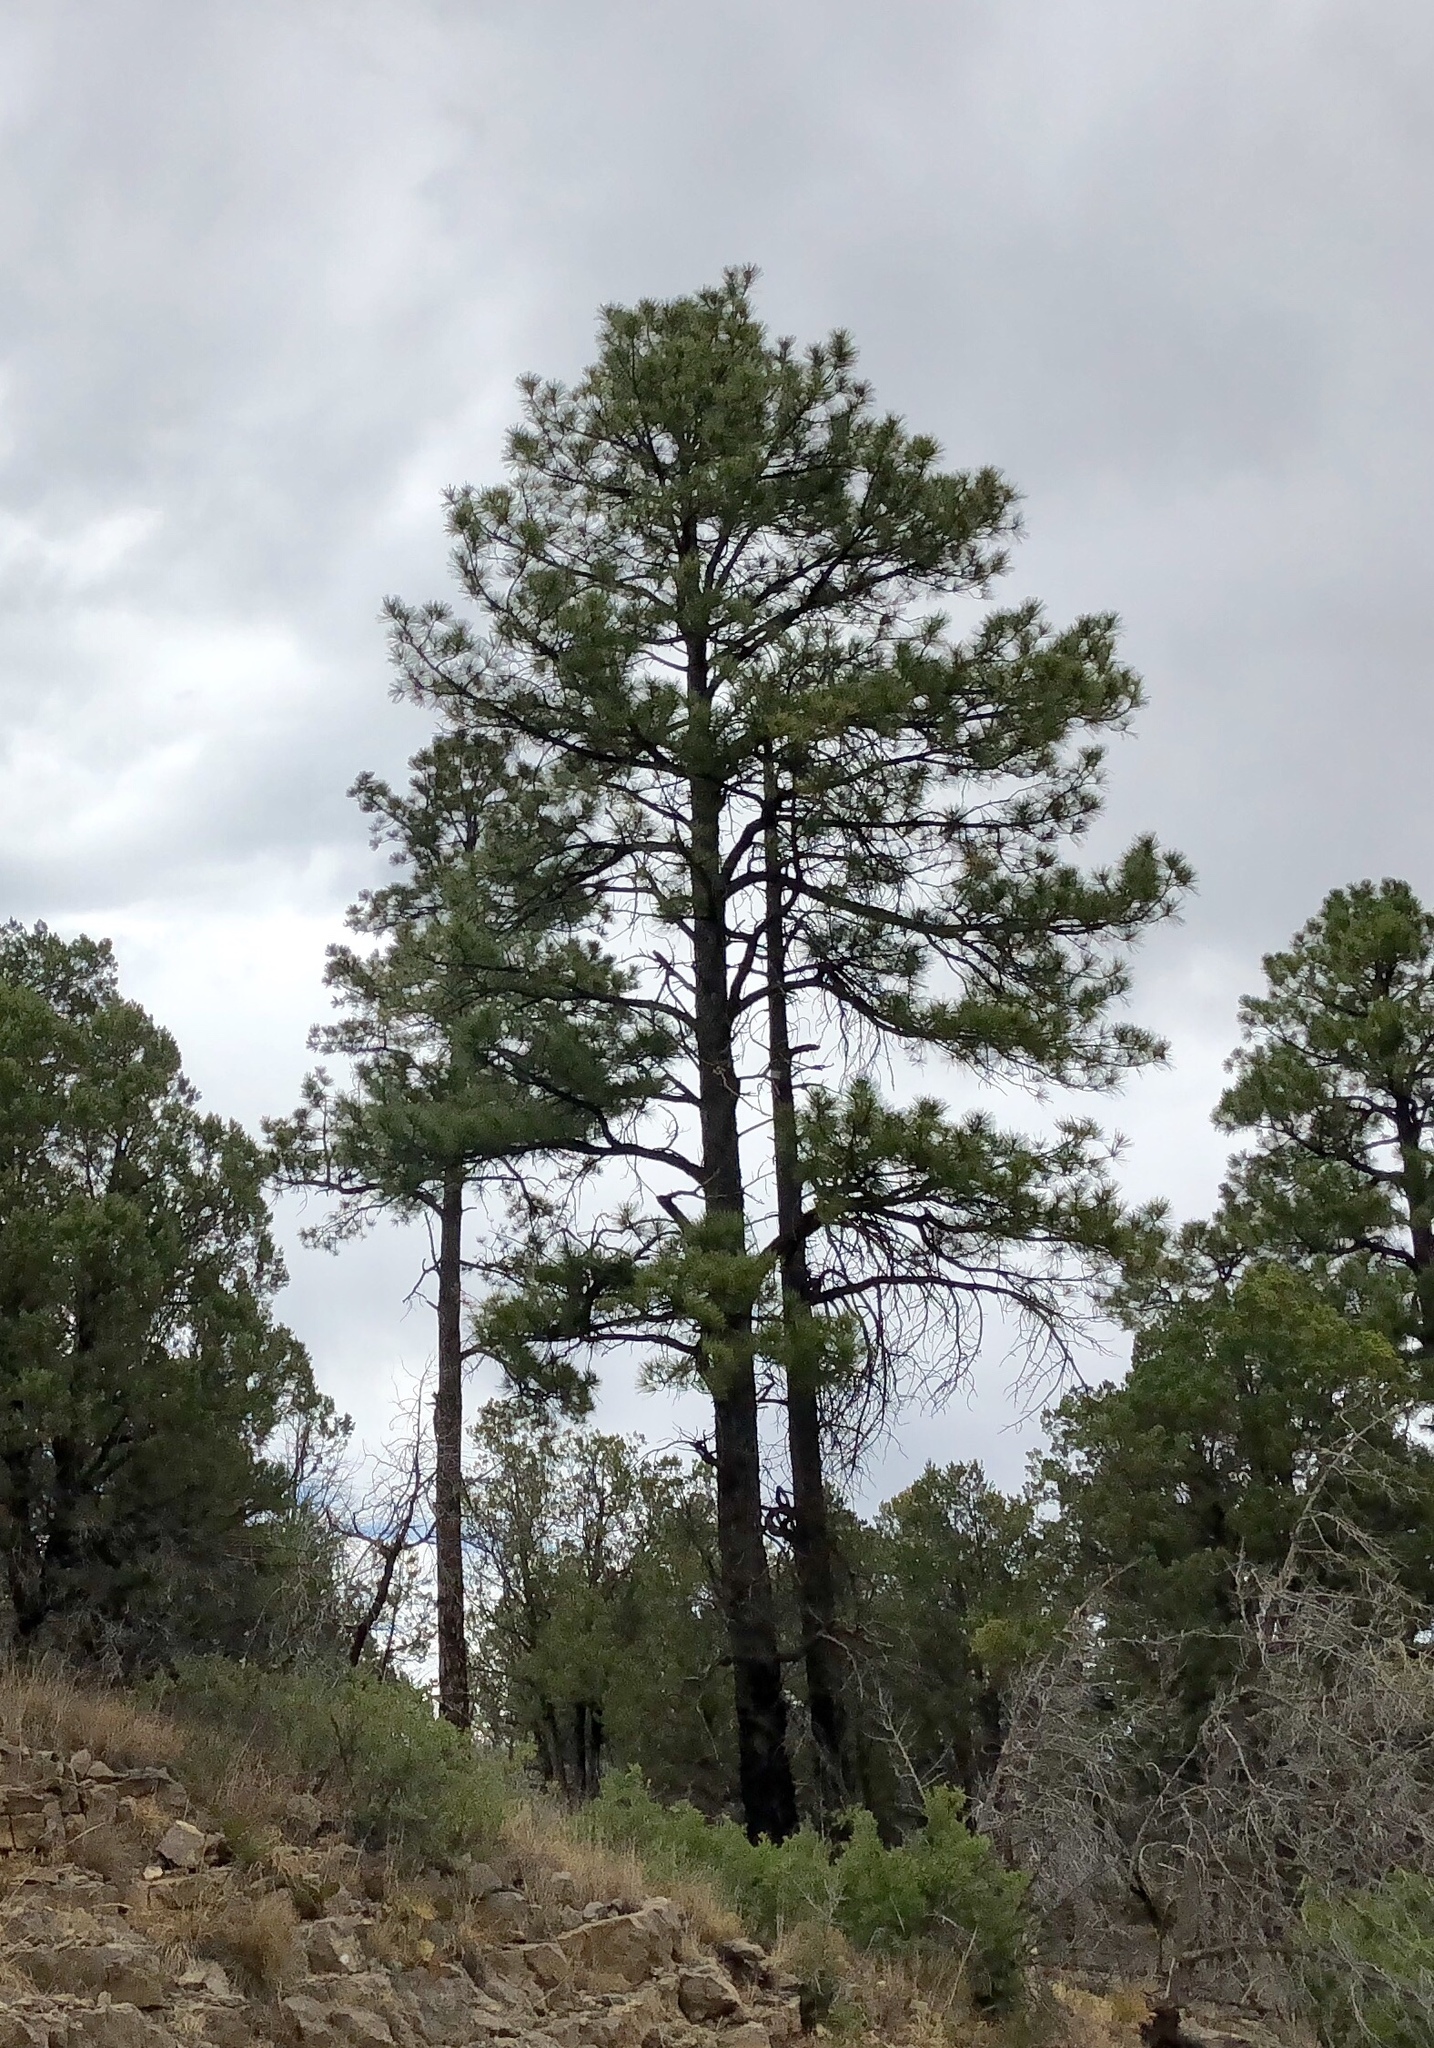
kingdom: Plantae
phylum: Tracheophyta
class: Pinopsida
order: Pinales
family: Pinaceae
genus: Pinus
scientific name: Pinus ponderosa
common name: Western yellow-pine
